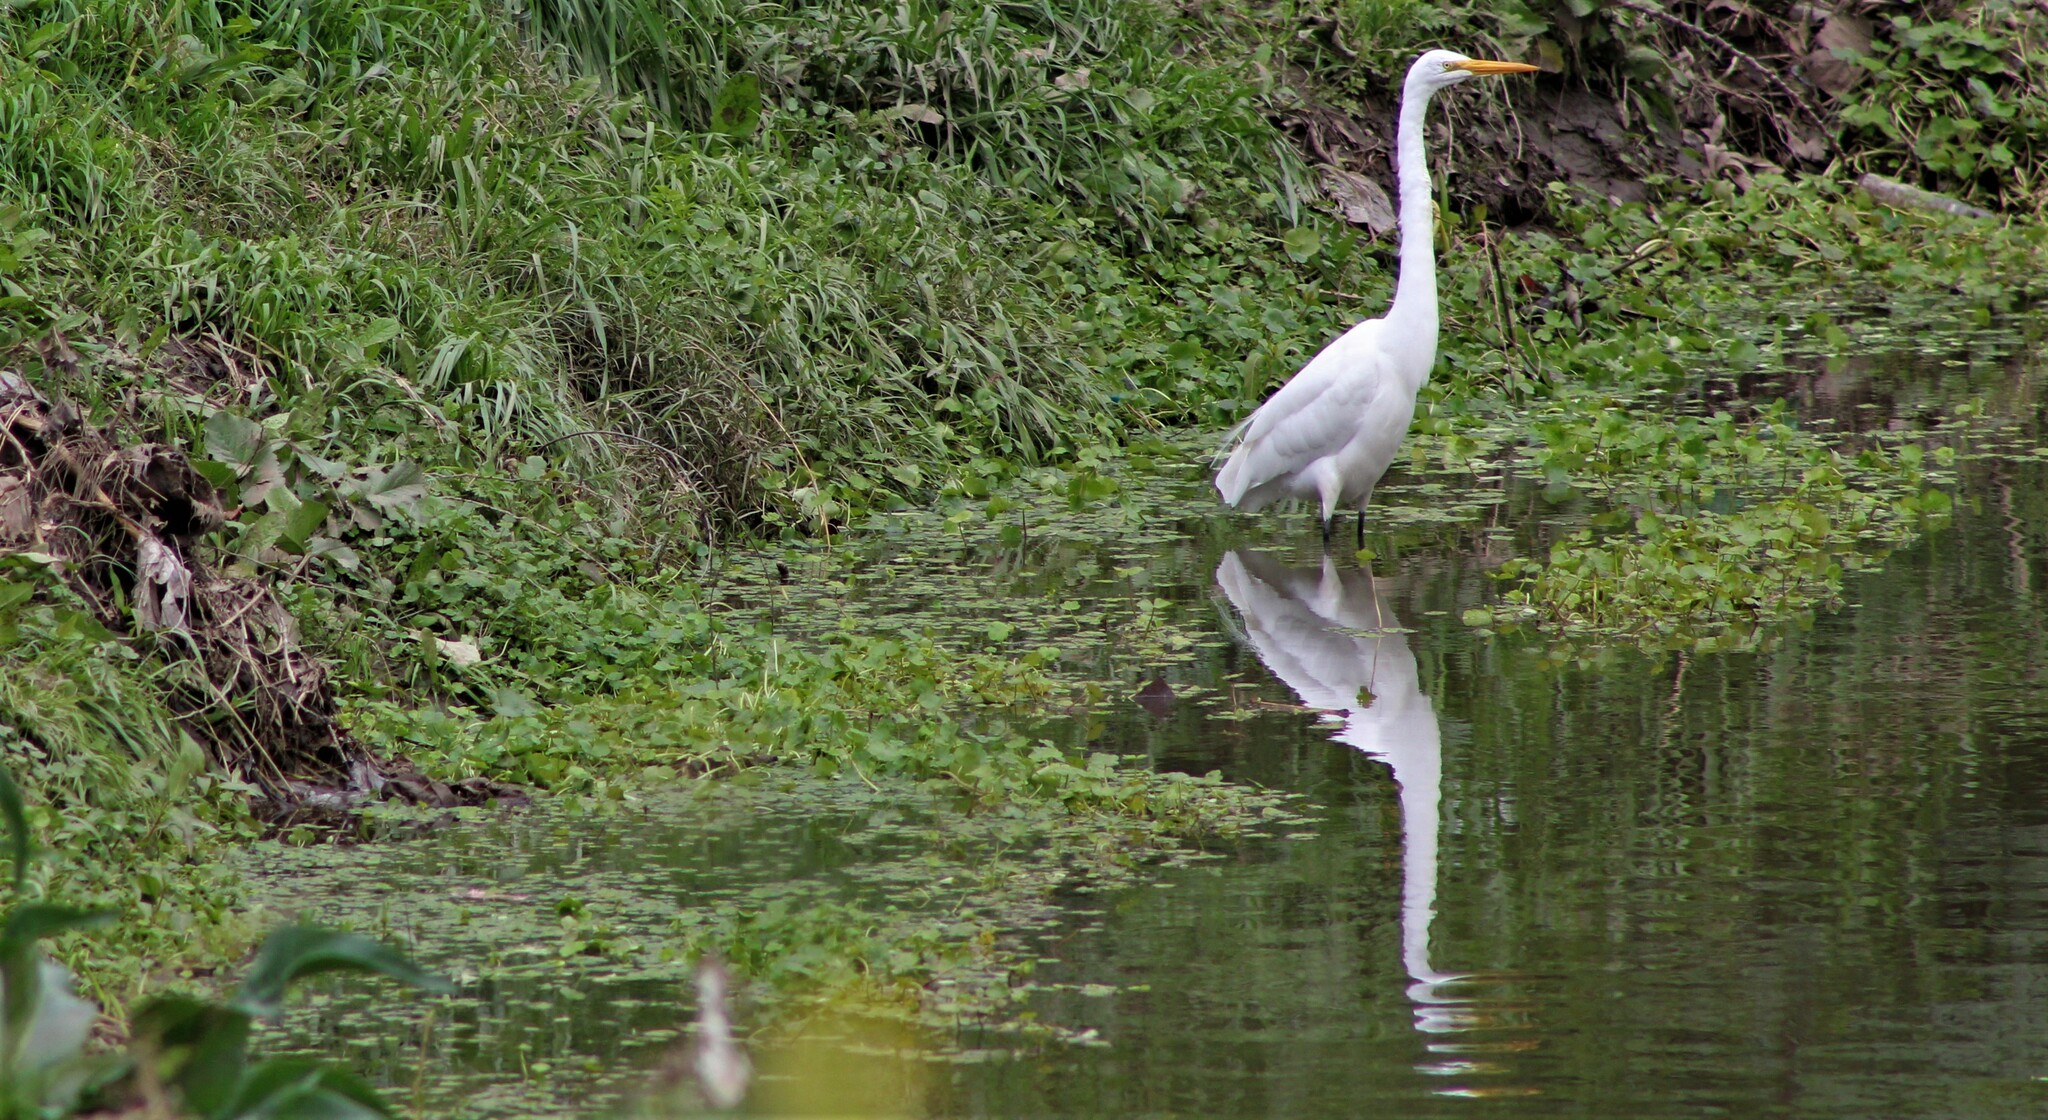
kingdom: Animalia
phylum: Chordata
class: Aves
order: Pelecaniformes
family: Ardeidae
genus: Ardea
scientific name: Ardea alba
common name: Great egret
